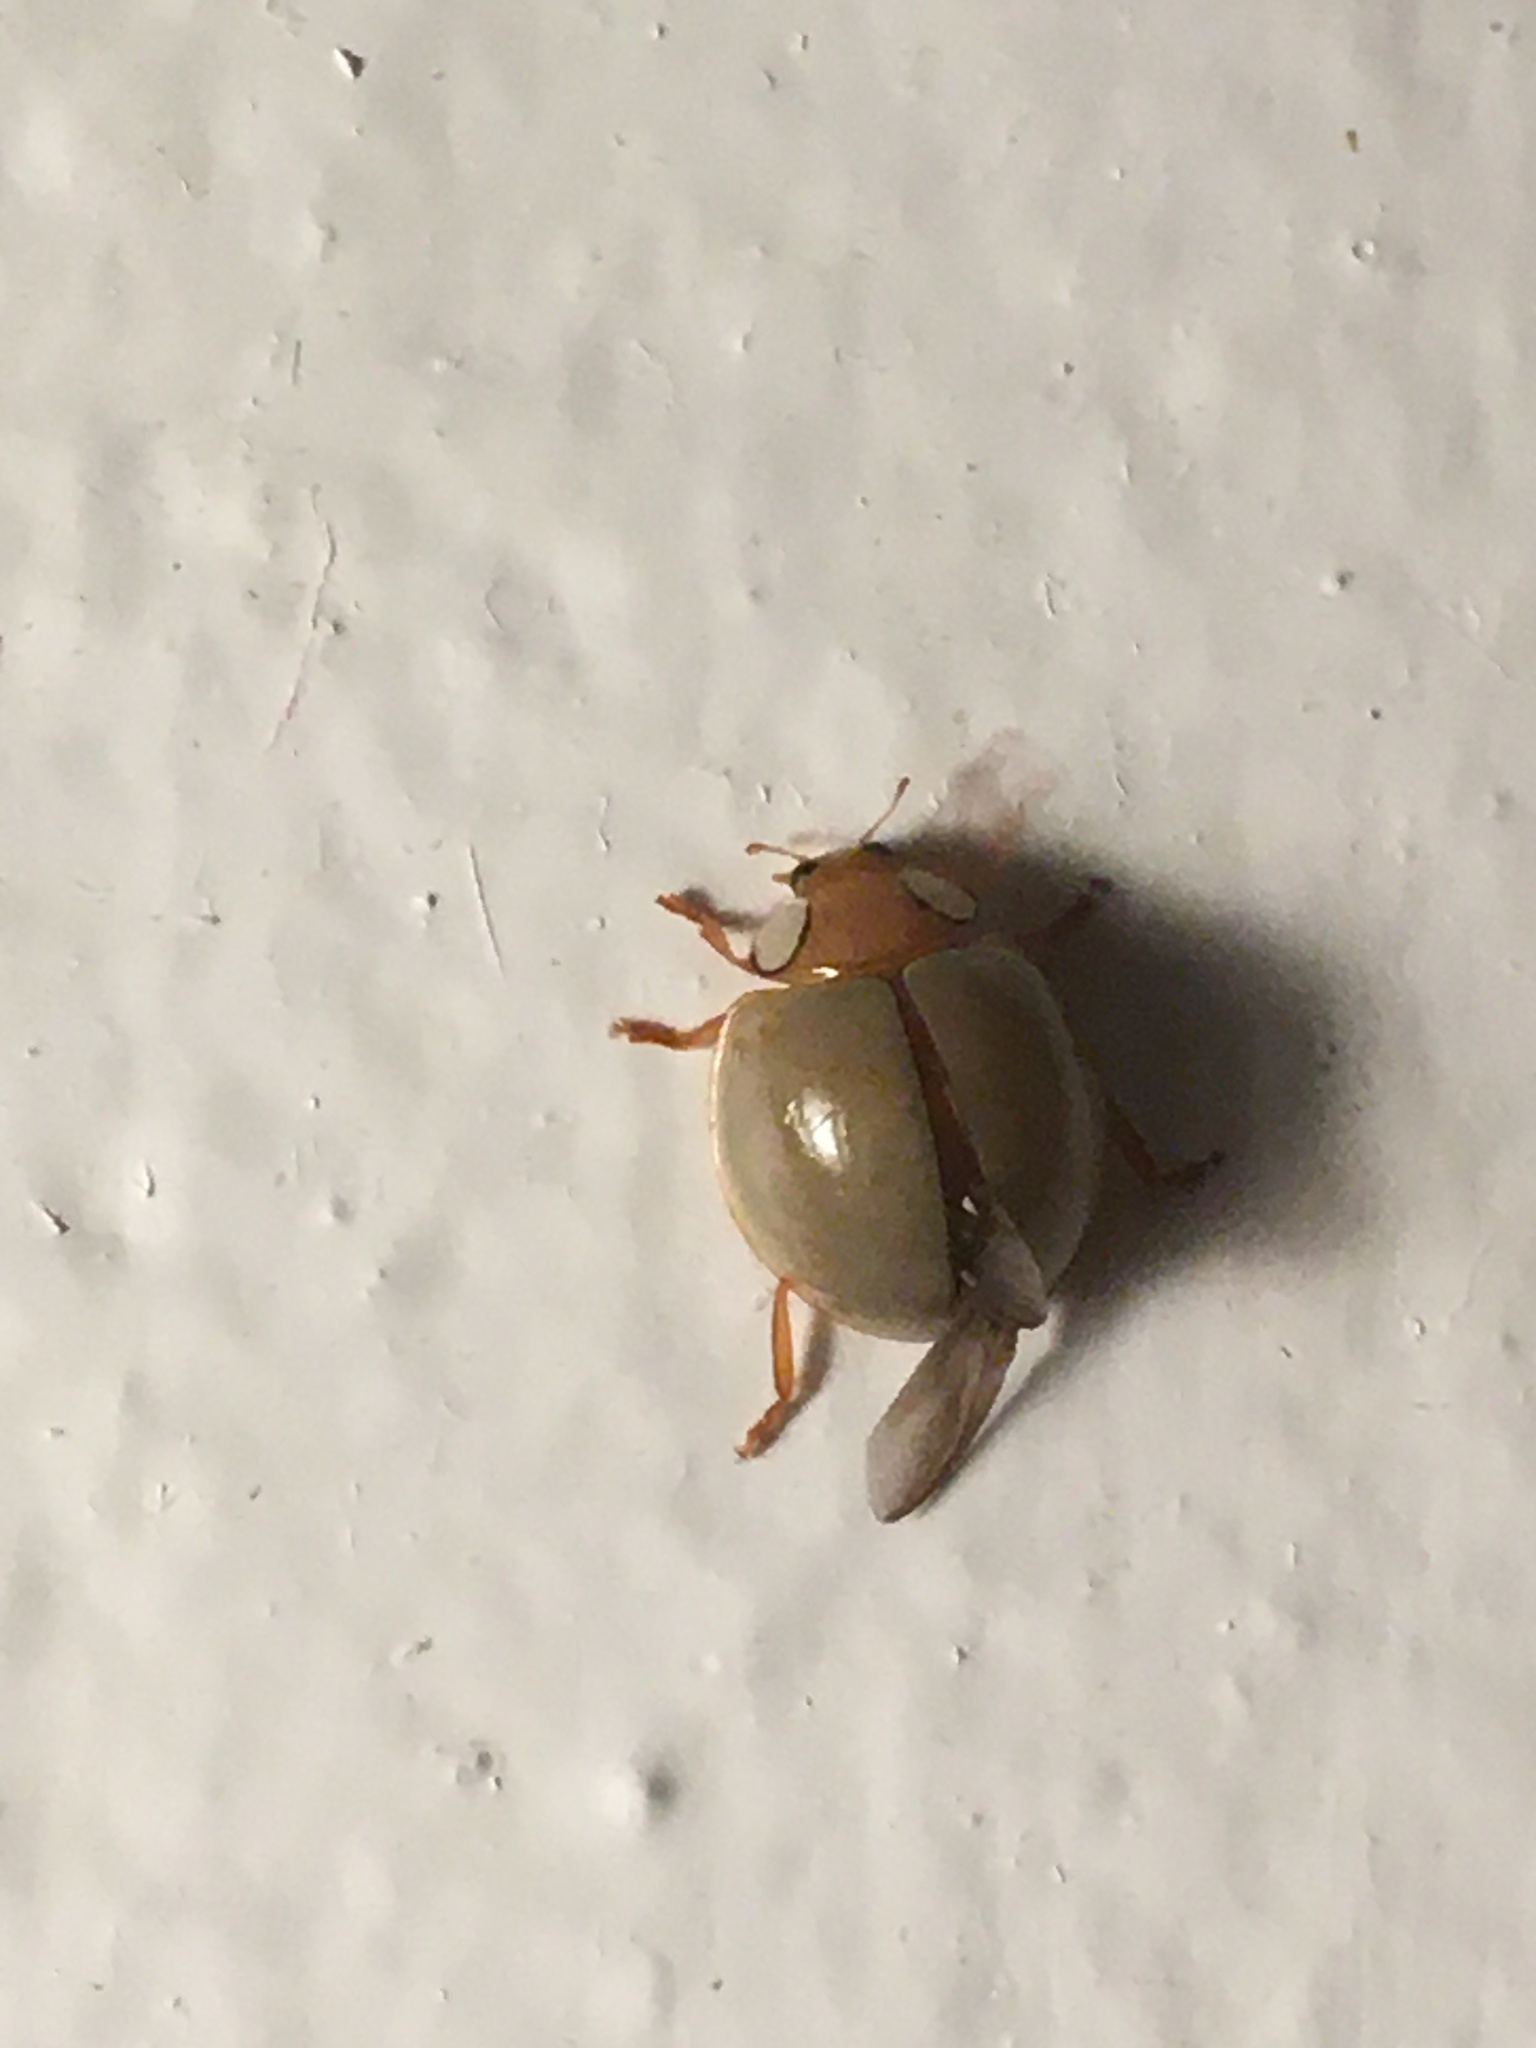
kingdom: Animalia
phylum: Arthropoda
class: Insecta
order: Coleoptera
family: Coccinellidae
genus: Paraneda
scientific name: Paraneda
